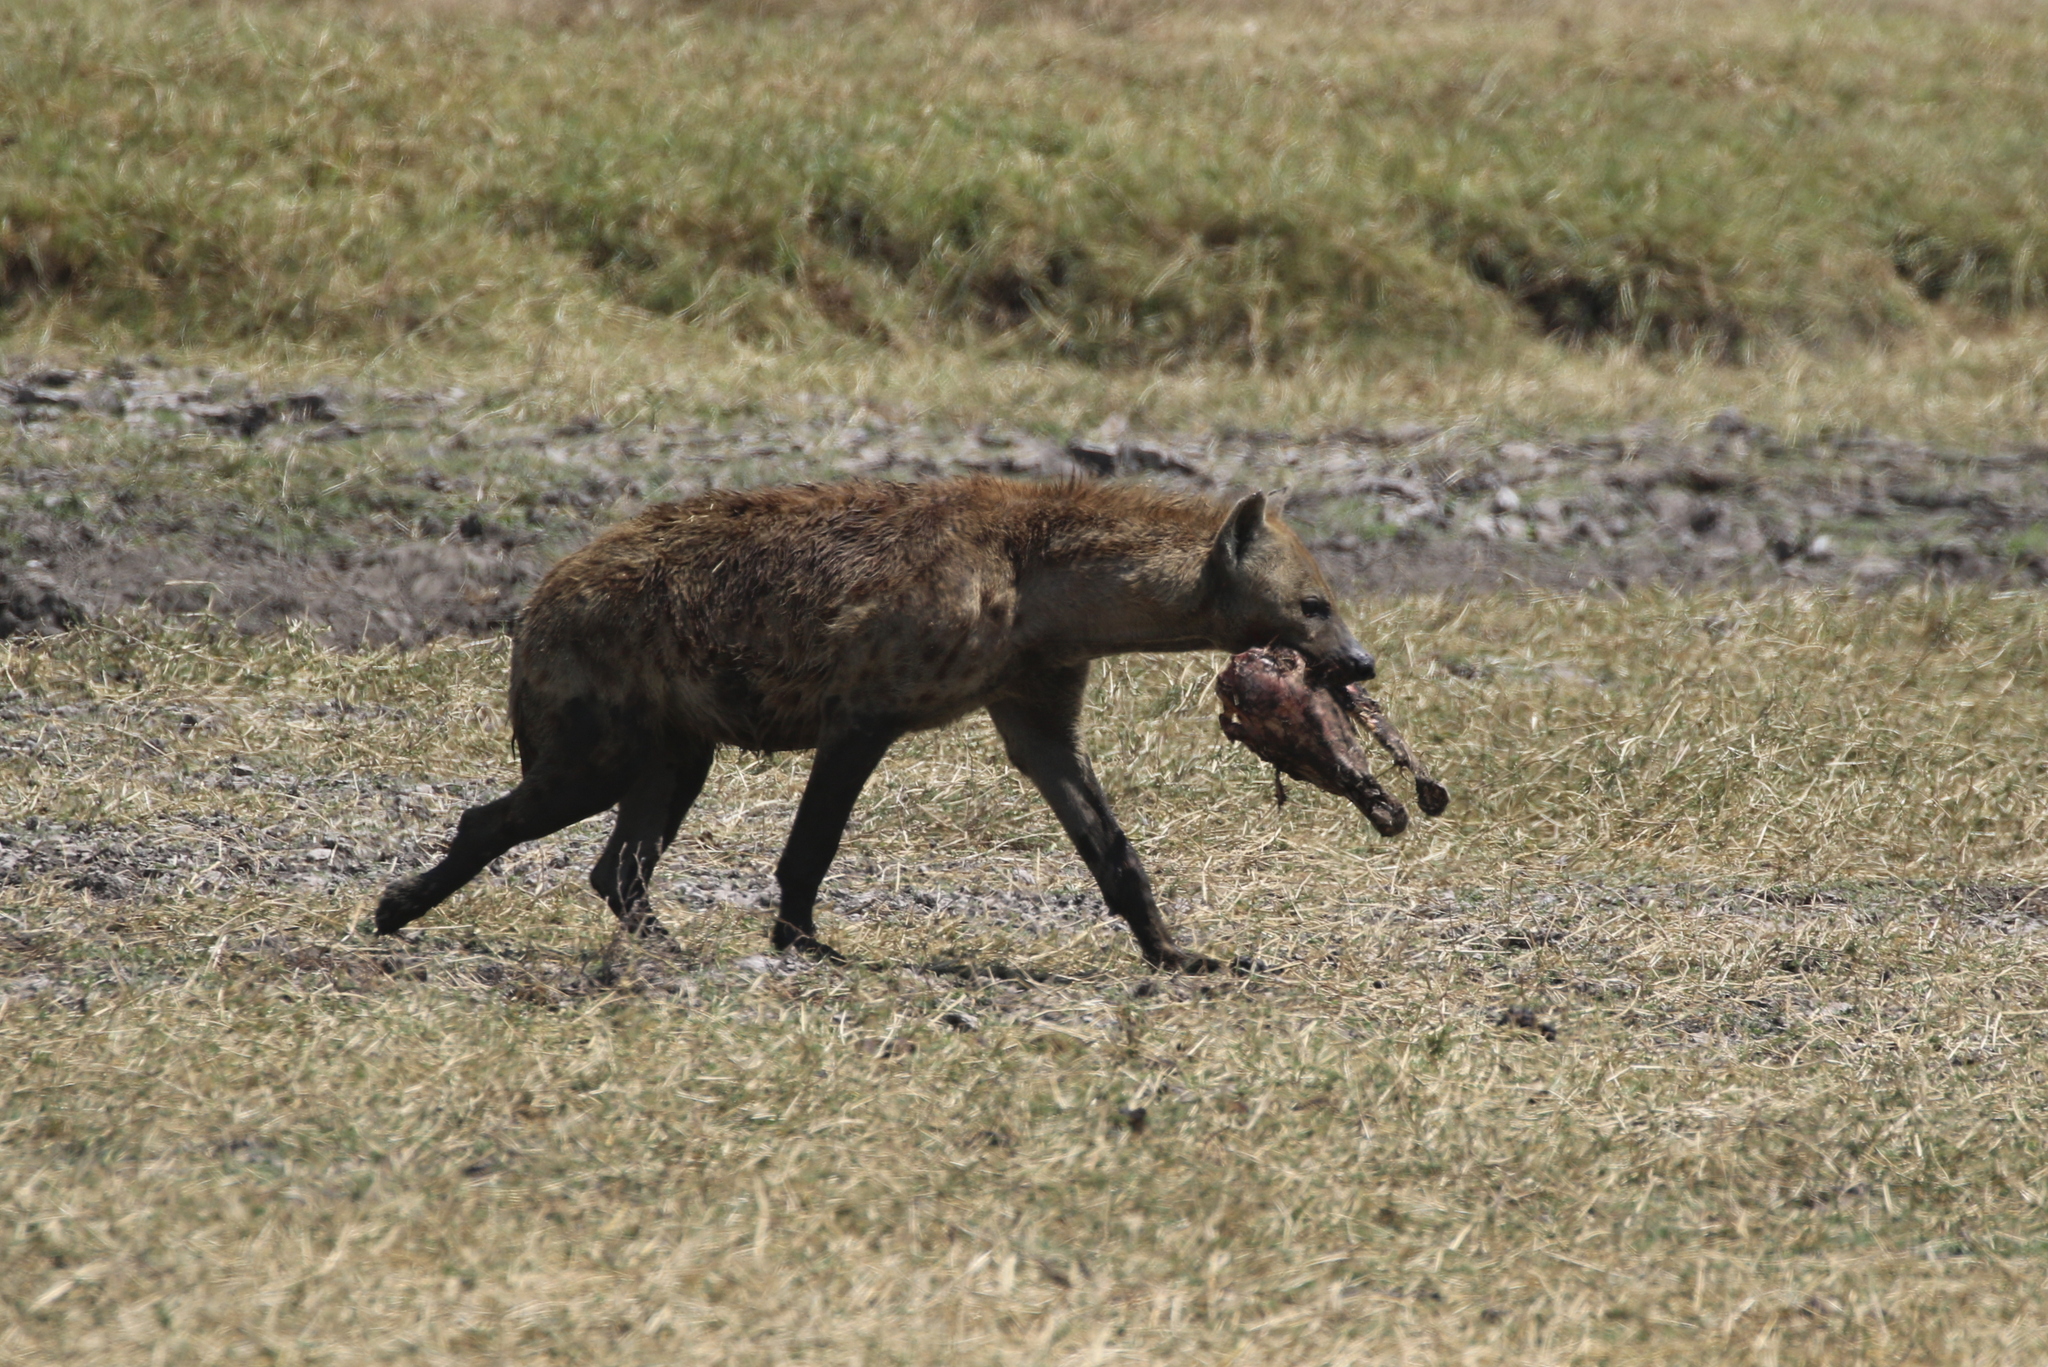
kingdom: Animalia
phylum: Chordata
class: Mammalia
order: Carnivora
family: Hyaenidae
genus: Crocuta
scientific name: Crocuta crocuta
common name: Spotted hyaena
